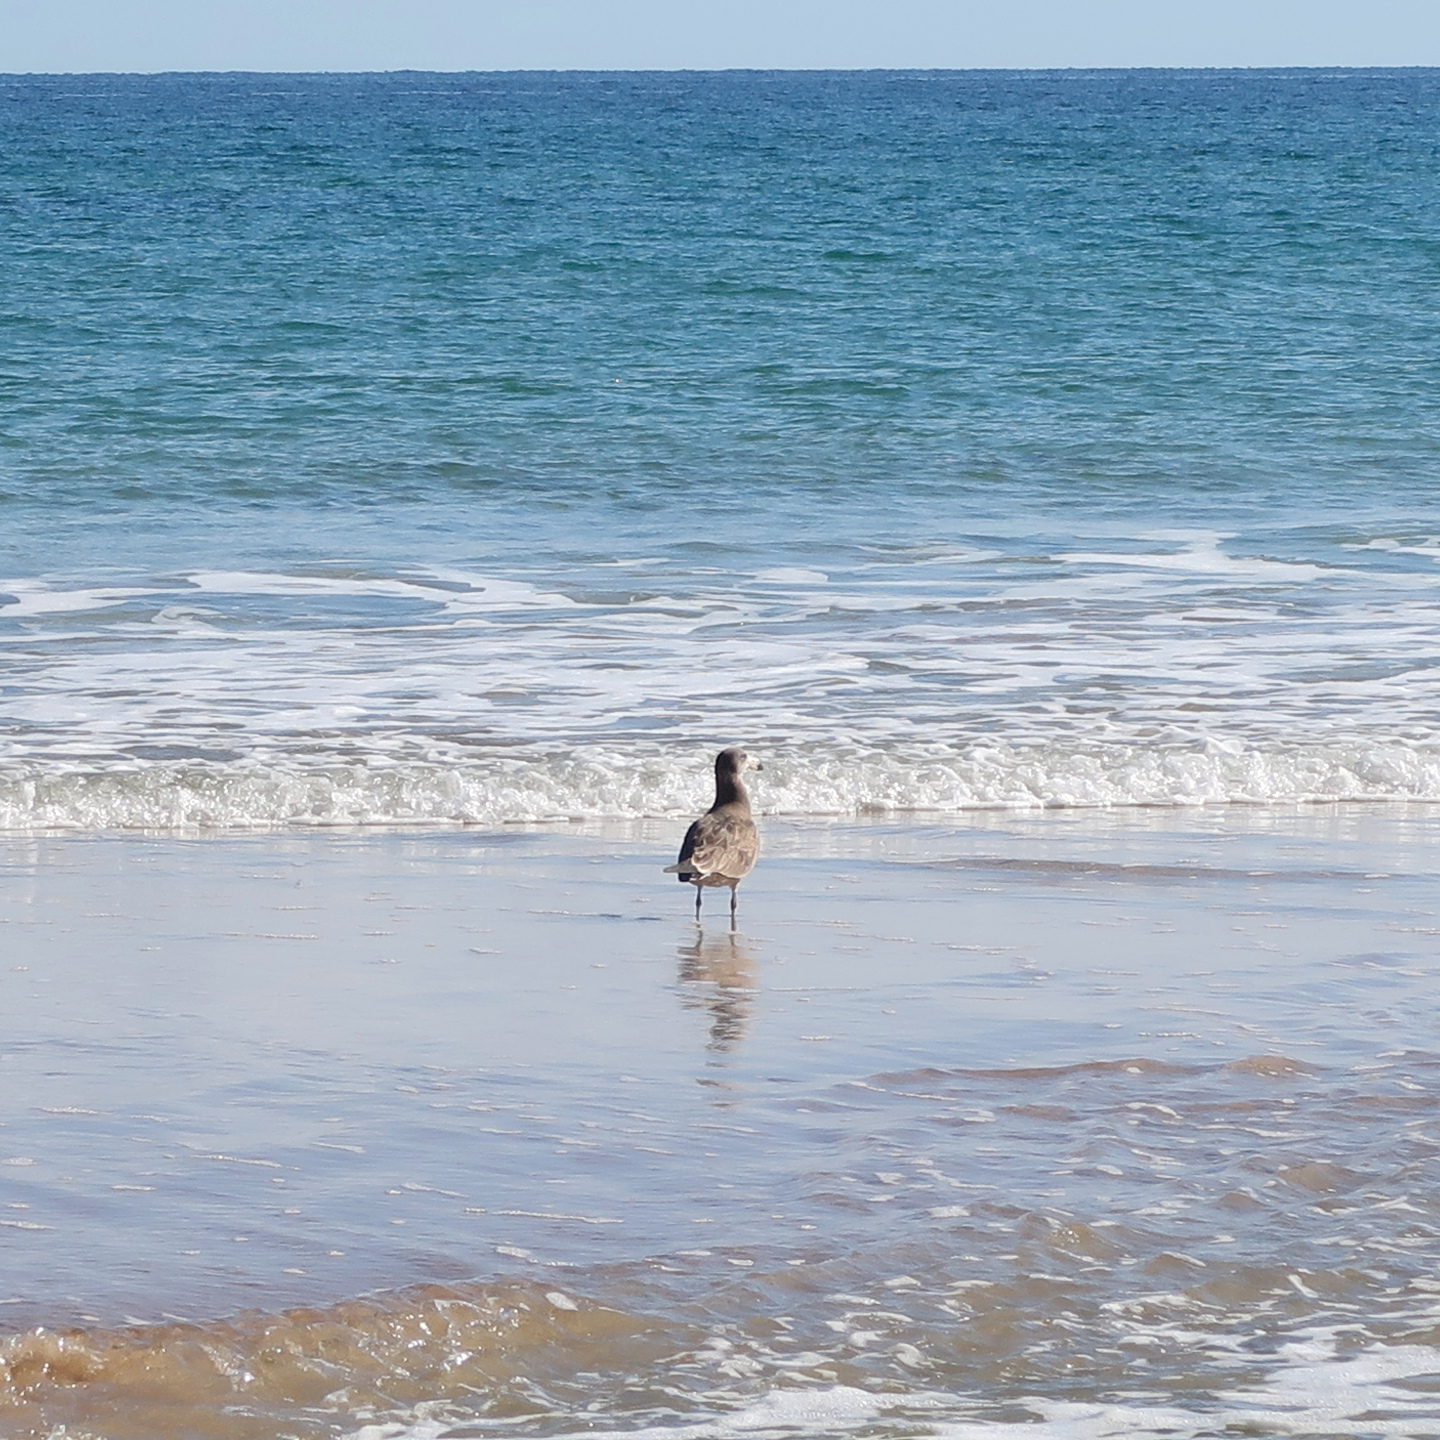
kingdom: Animalia
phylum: Chordata
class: Aves
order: Charadriiformes
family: Laridae
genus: Larus
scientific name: Larus pacificus
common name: Pacific gull
